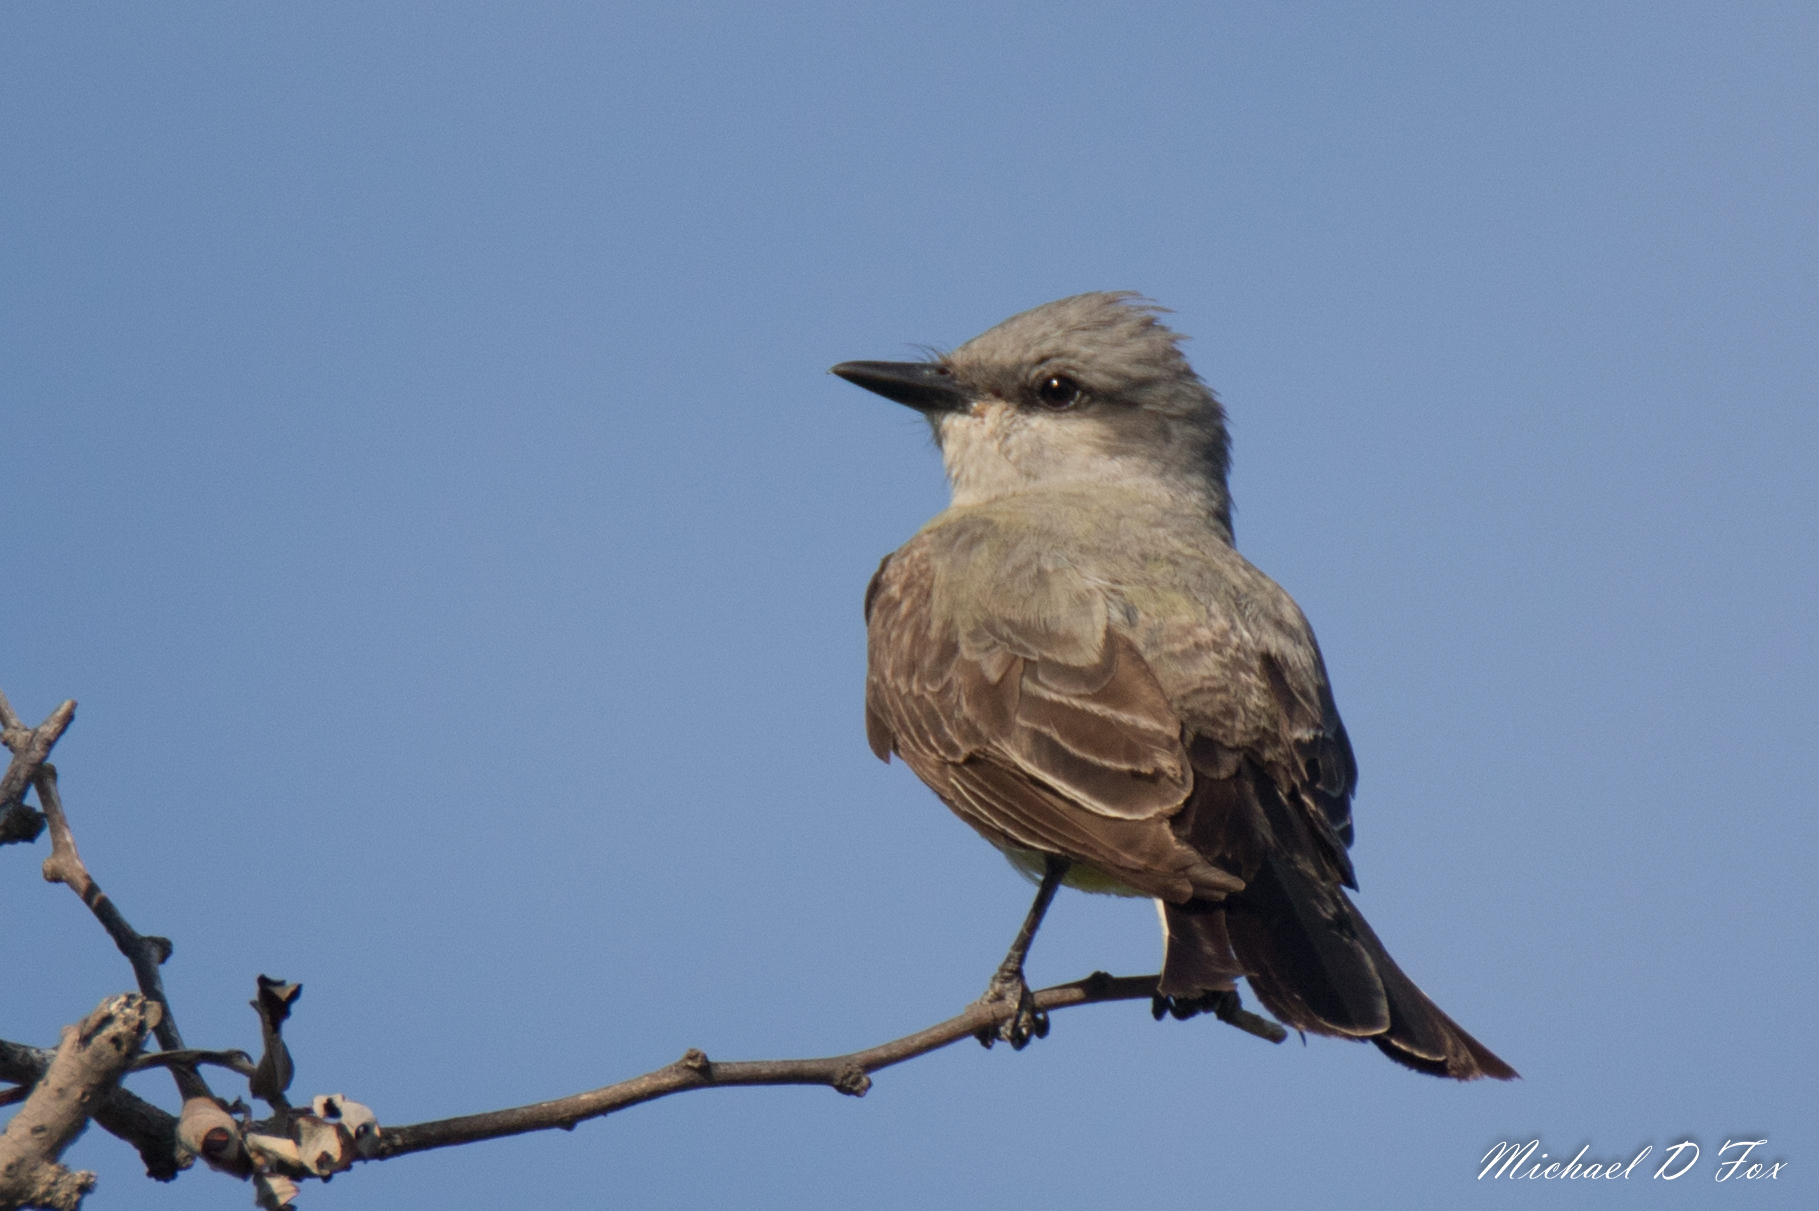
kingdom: Animalia
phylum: Chordata
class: Aves
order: Passeriformes
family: Tyrannidae
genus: Tyrannus
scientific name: Tyrannus verticalis
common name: Western kingbird
